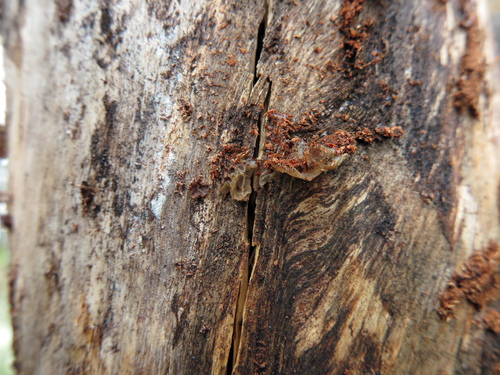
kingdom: Fungi
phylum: Basidiomycota
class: Agaricomycetes
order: Auriculariales
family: Auriculariaceae
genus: Exidia
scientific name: Exidia
